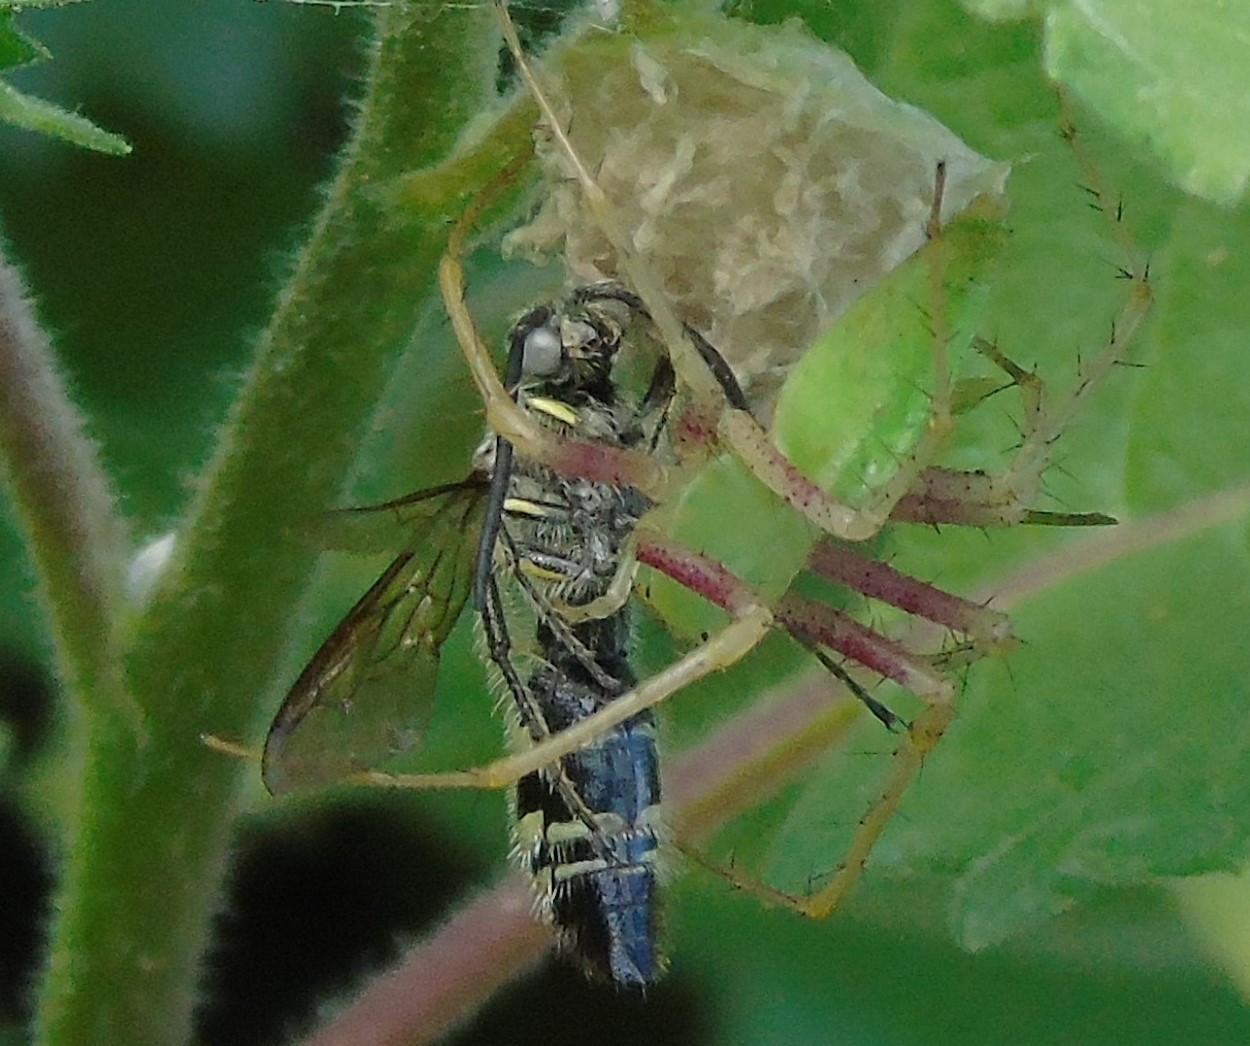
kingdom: Animalia
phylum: Arthropoda
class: Insecta
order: Hymenoptera
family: Scoliidae
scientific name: Scoliidae
